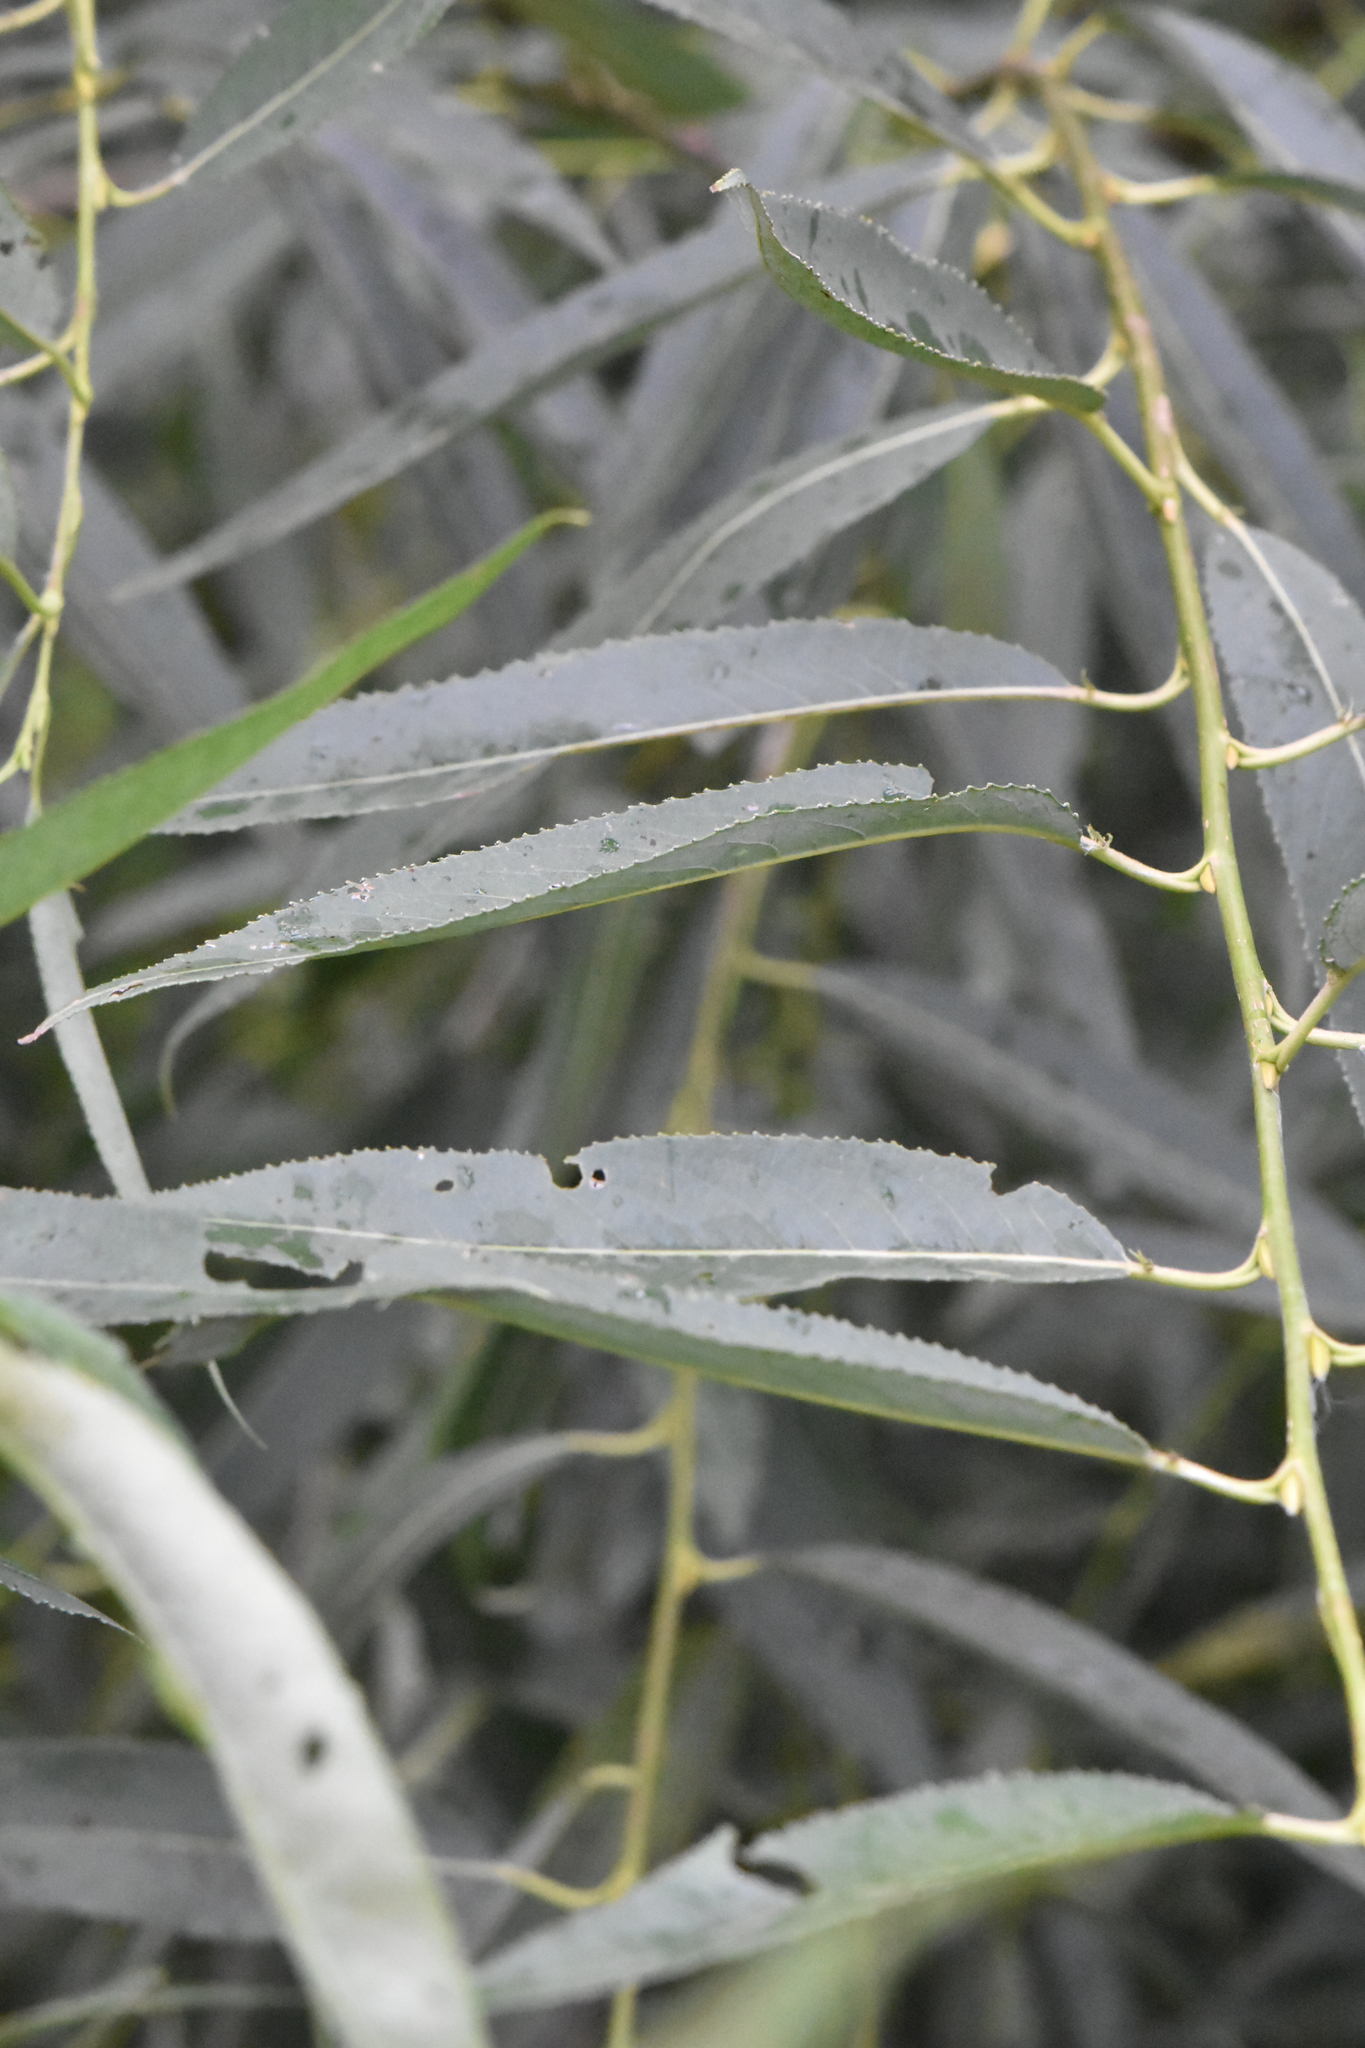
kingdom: Plantae
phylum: Tracheophyta
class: Magnoliopsida
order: Malpighiales
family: Salicaceae
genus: Salix
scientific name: Salix alba
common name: White willow
